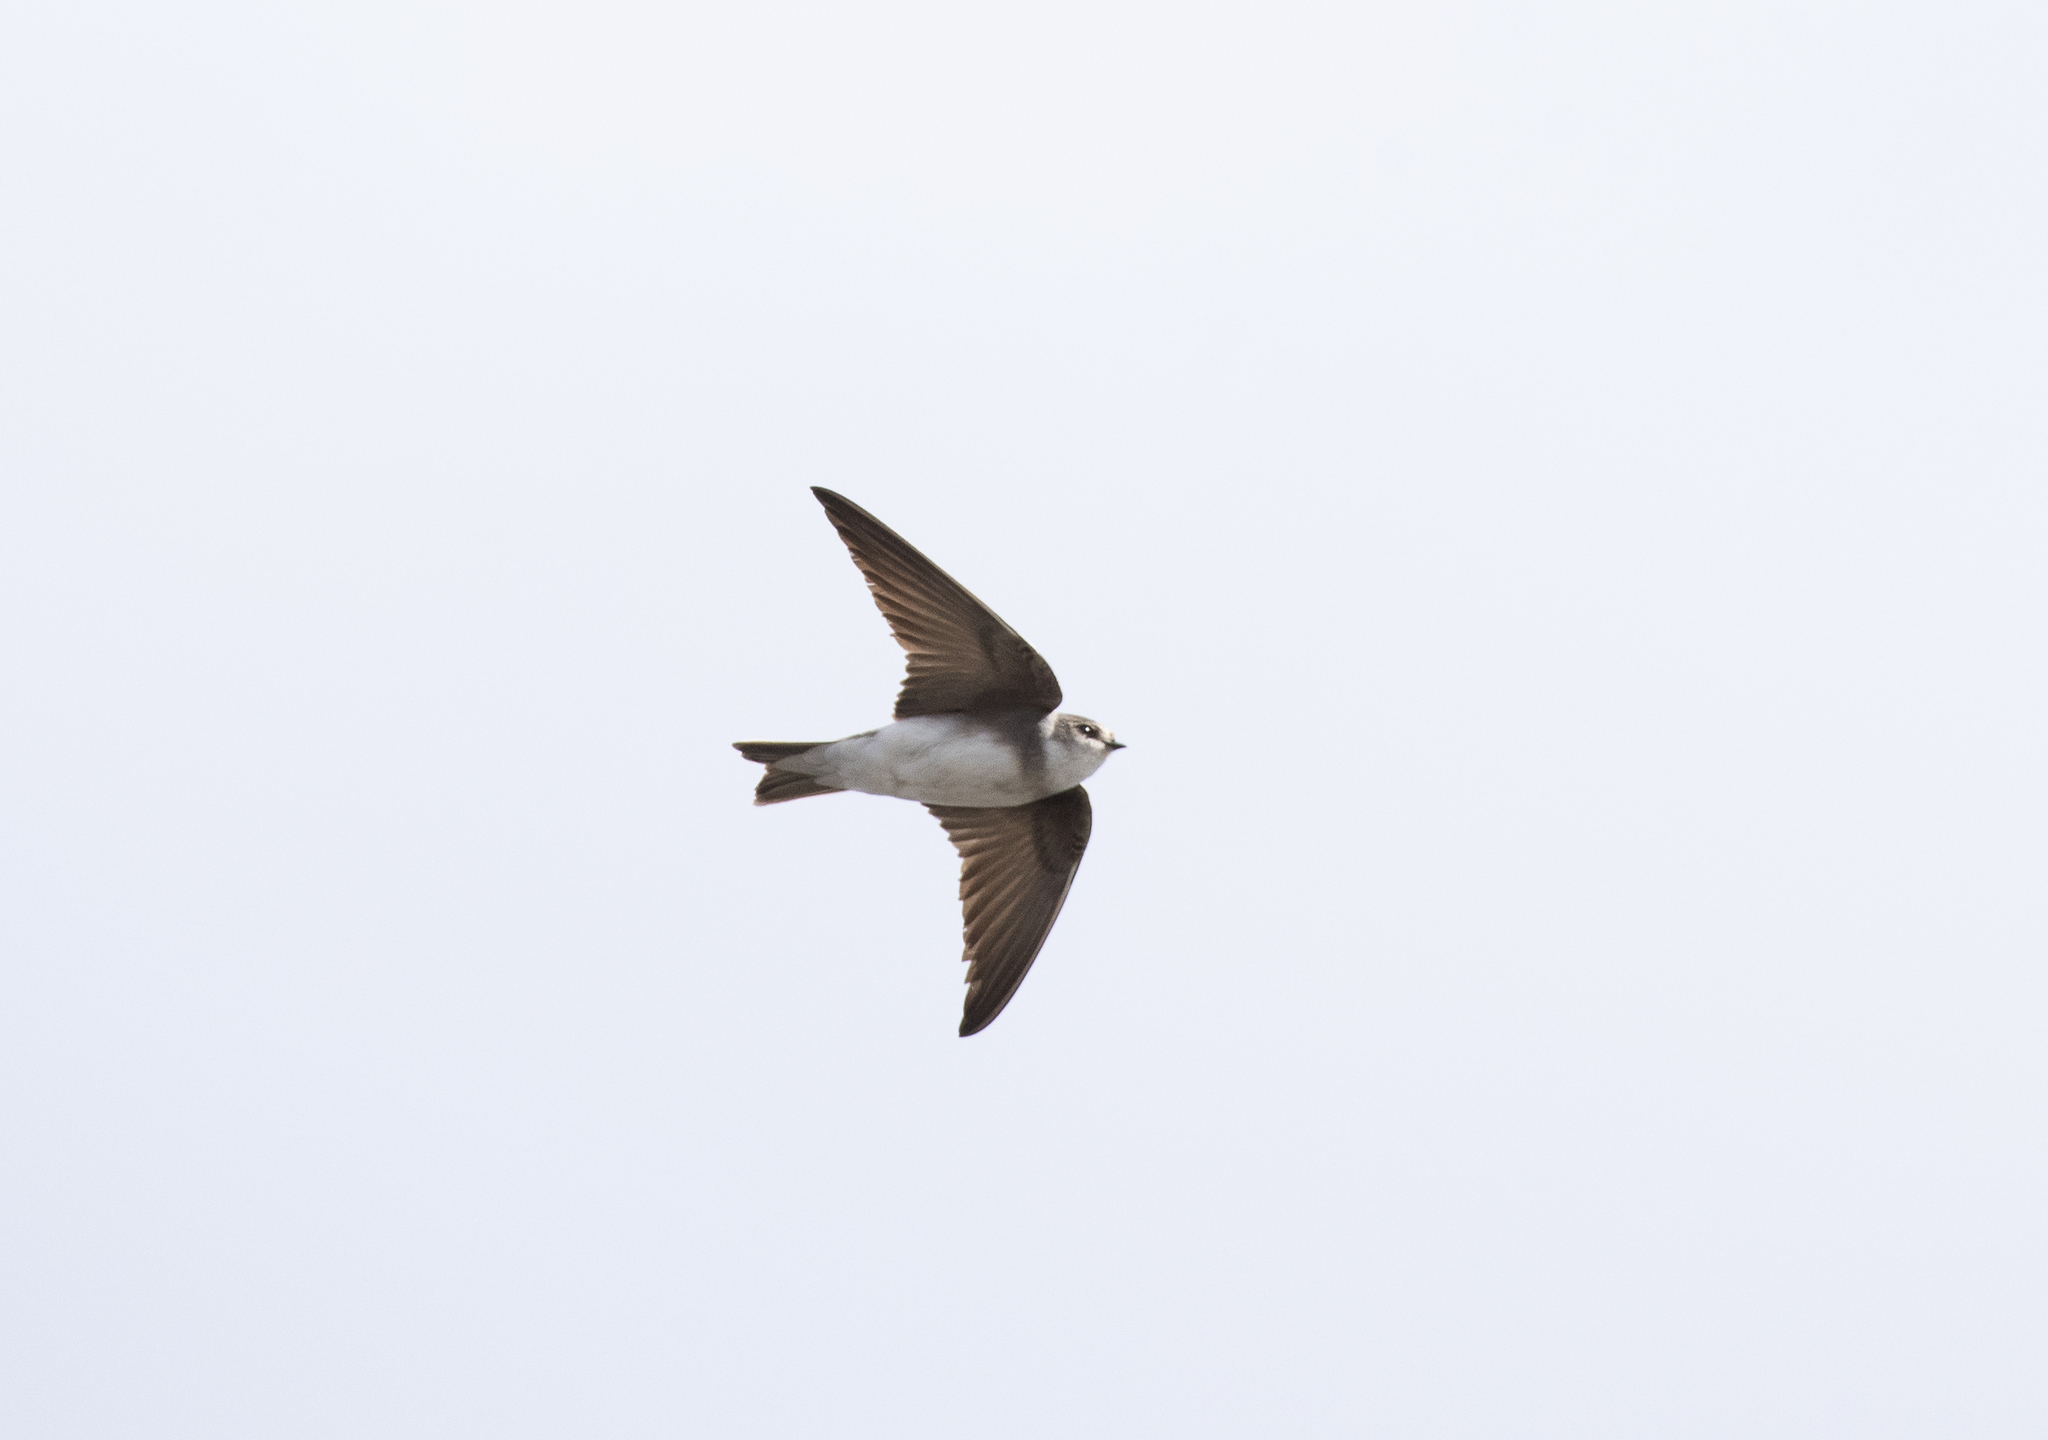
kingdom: Animalia
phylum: Chordata
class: Aves
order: Passeriformes
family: Hirundinidae
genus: Riparia
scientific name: Riparia diluta
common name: Pale martin
